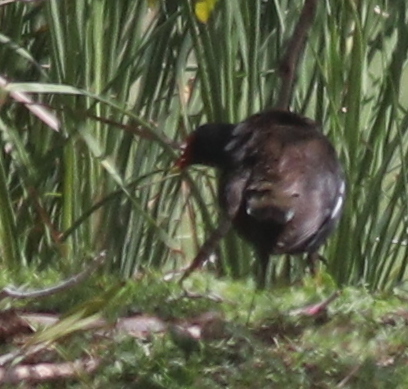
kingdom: Animalia
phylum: Chordata
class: Aves
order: Gruiformes
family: Rallidae
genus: Gallinula
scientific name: Gallinula chloropus
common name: Common moorhen
